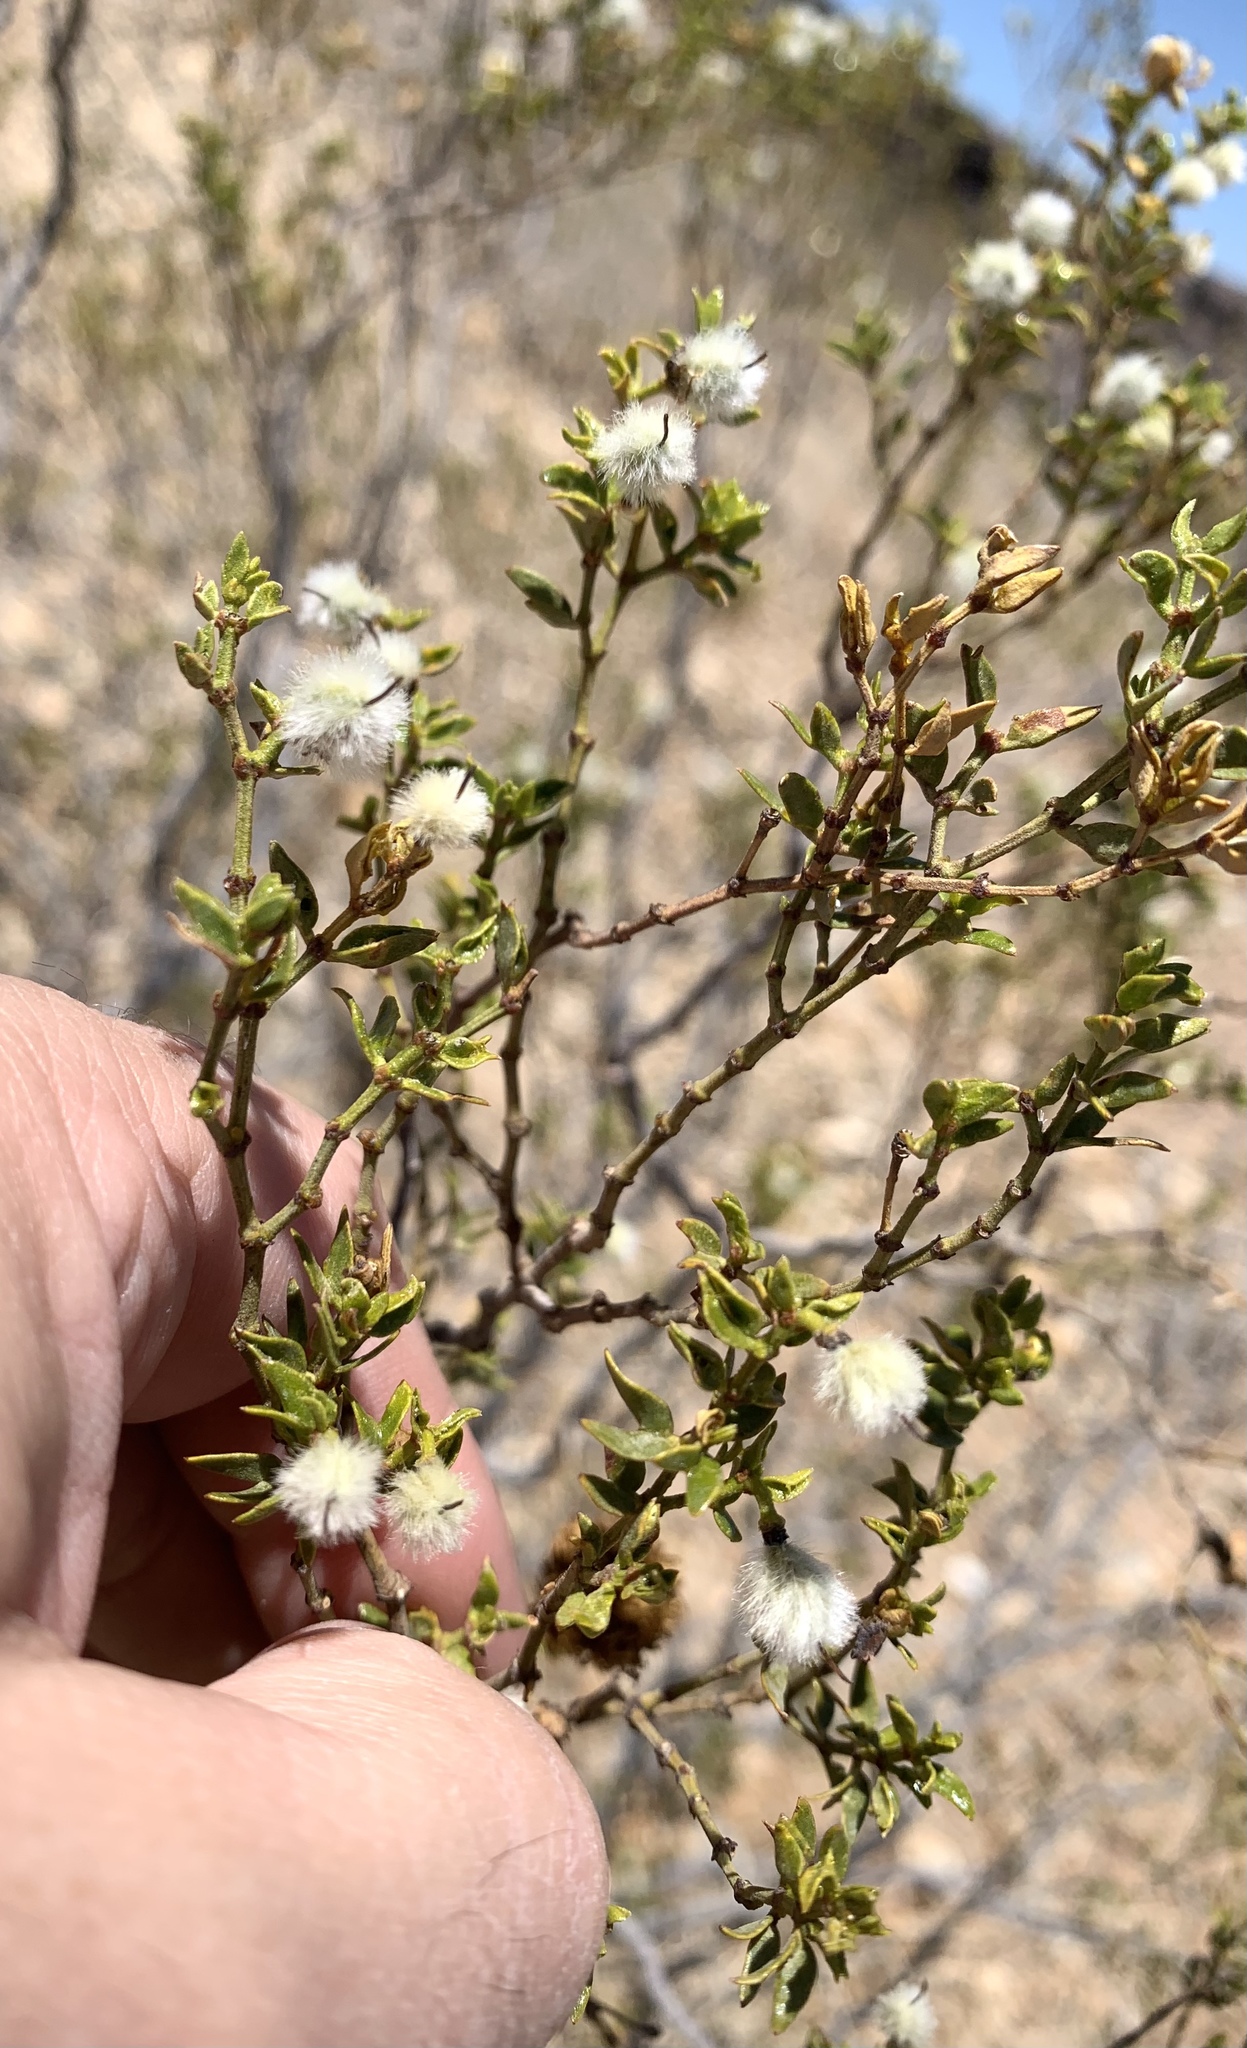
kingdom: Plantae
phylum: Tracheophyta
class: Magnoliopsida
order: Zygophyllales
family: Zygophyllaceae
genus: Larrea
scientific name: Larrea tridentata
